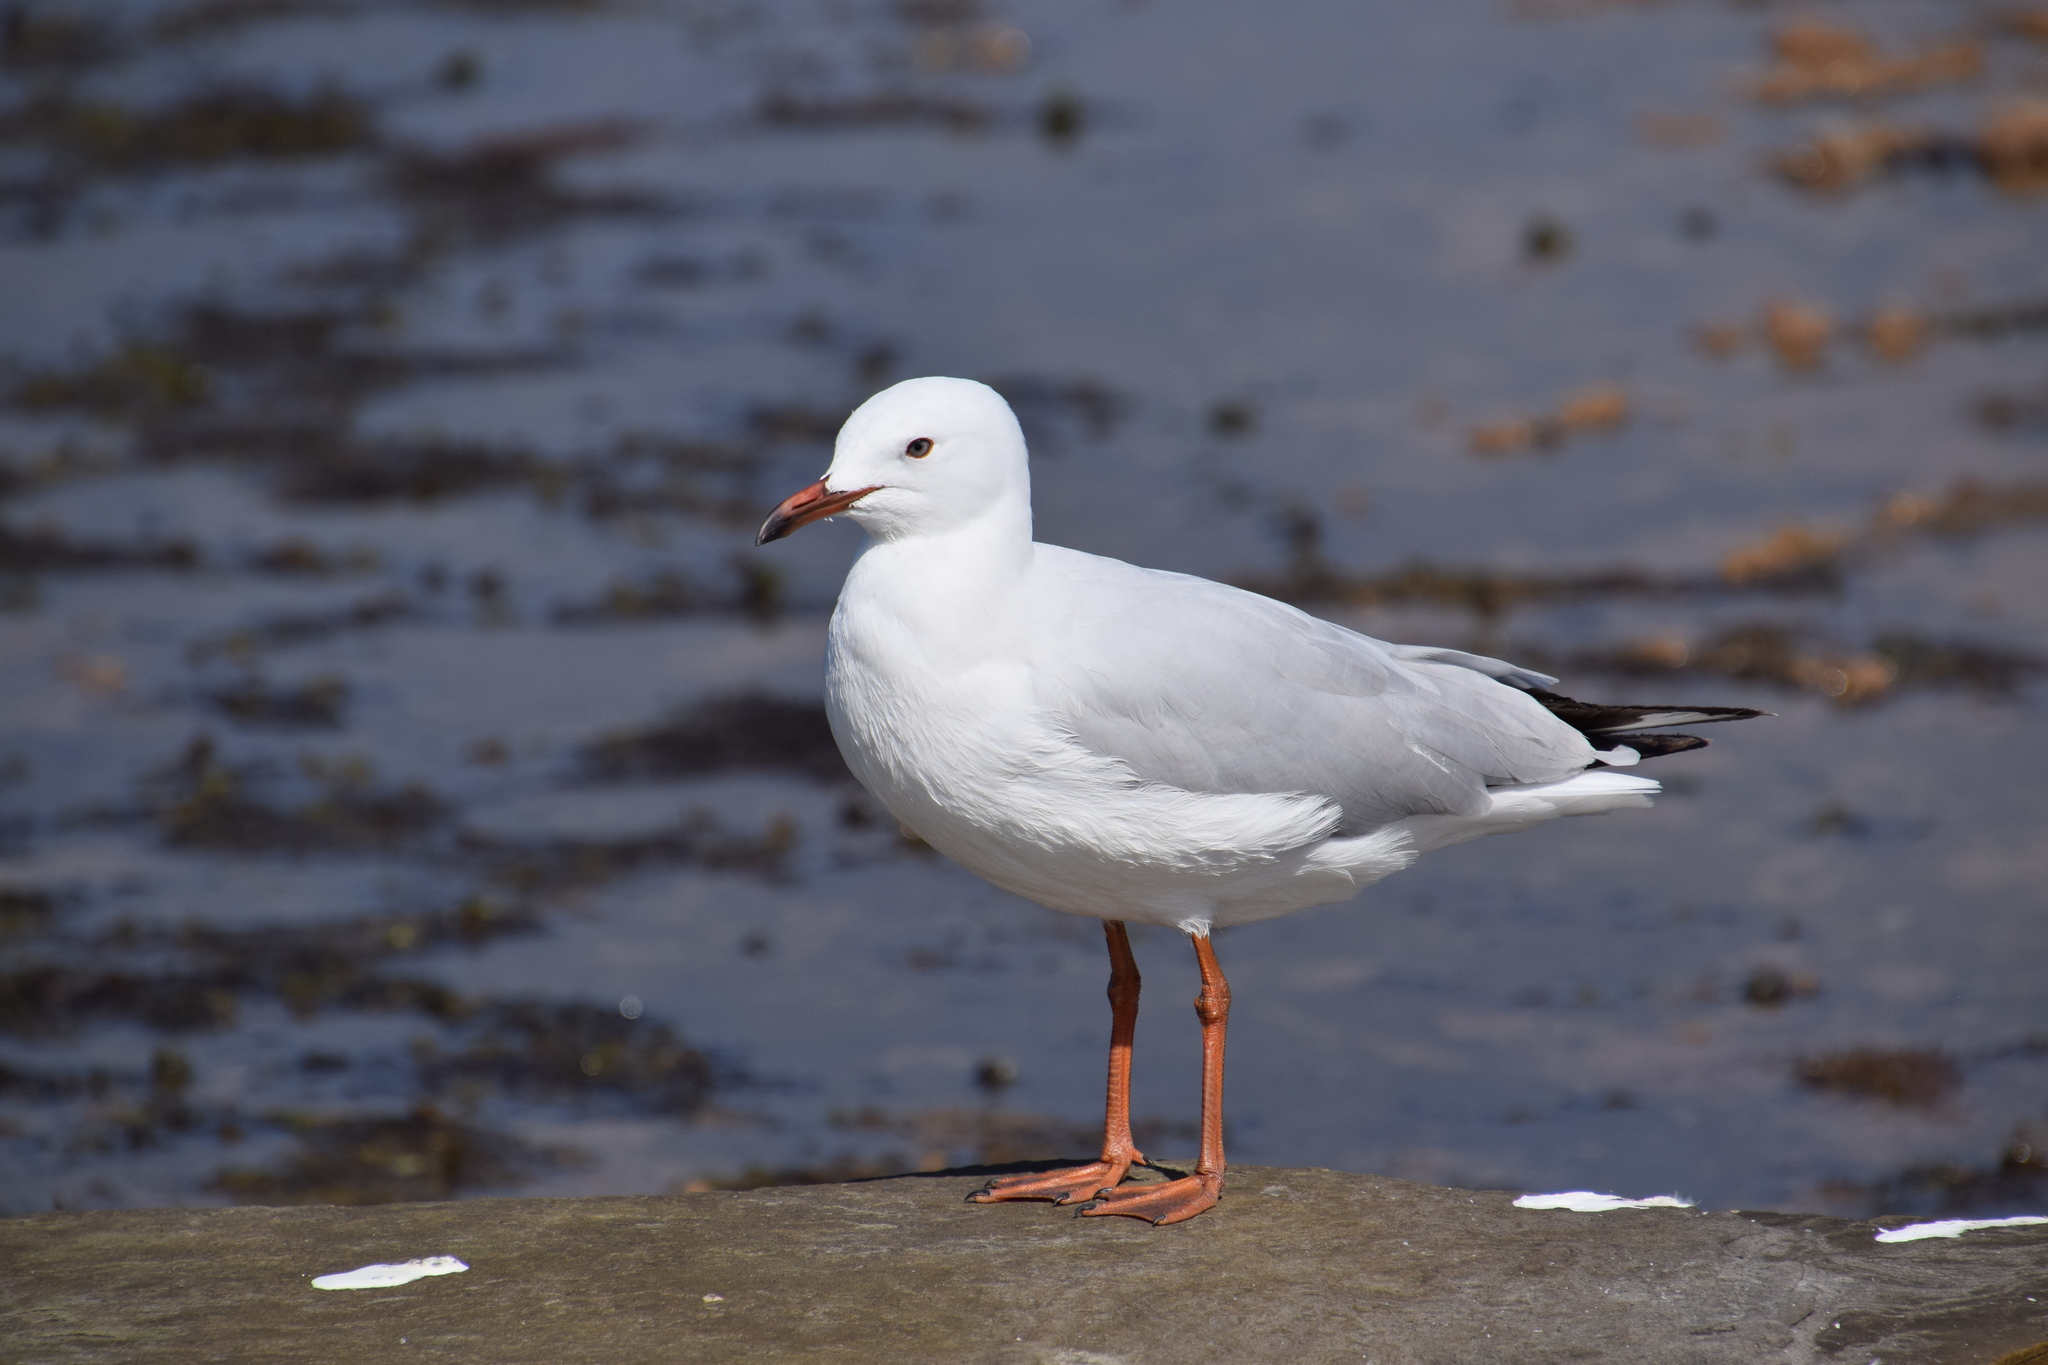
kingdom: Animalia
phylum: Chordata
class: Aves
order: Charadriiformes
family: Laridae
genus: Chroicocephalus
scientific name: Chroicocephalus novaehollandiae
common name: Silver gull
